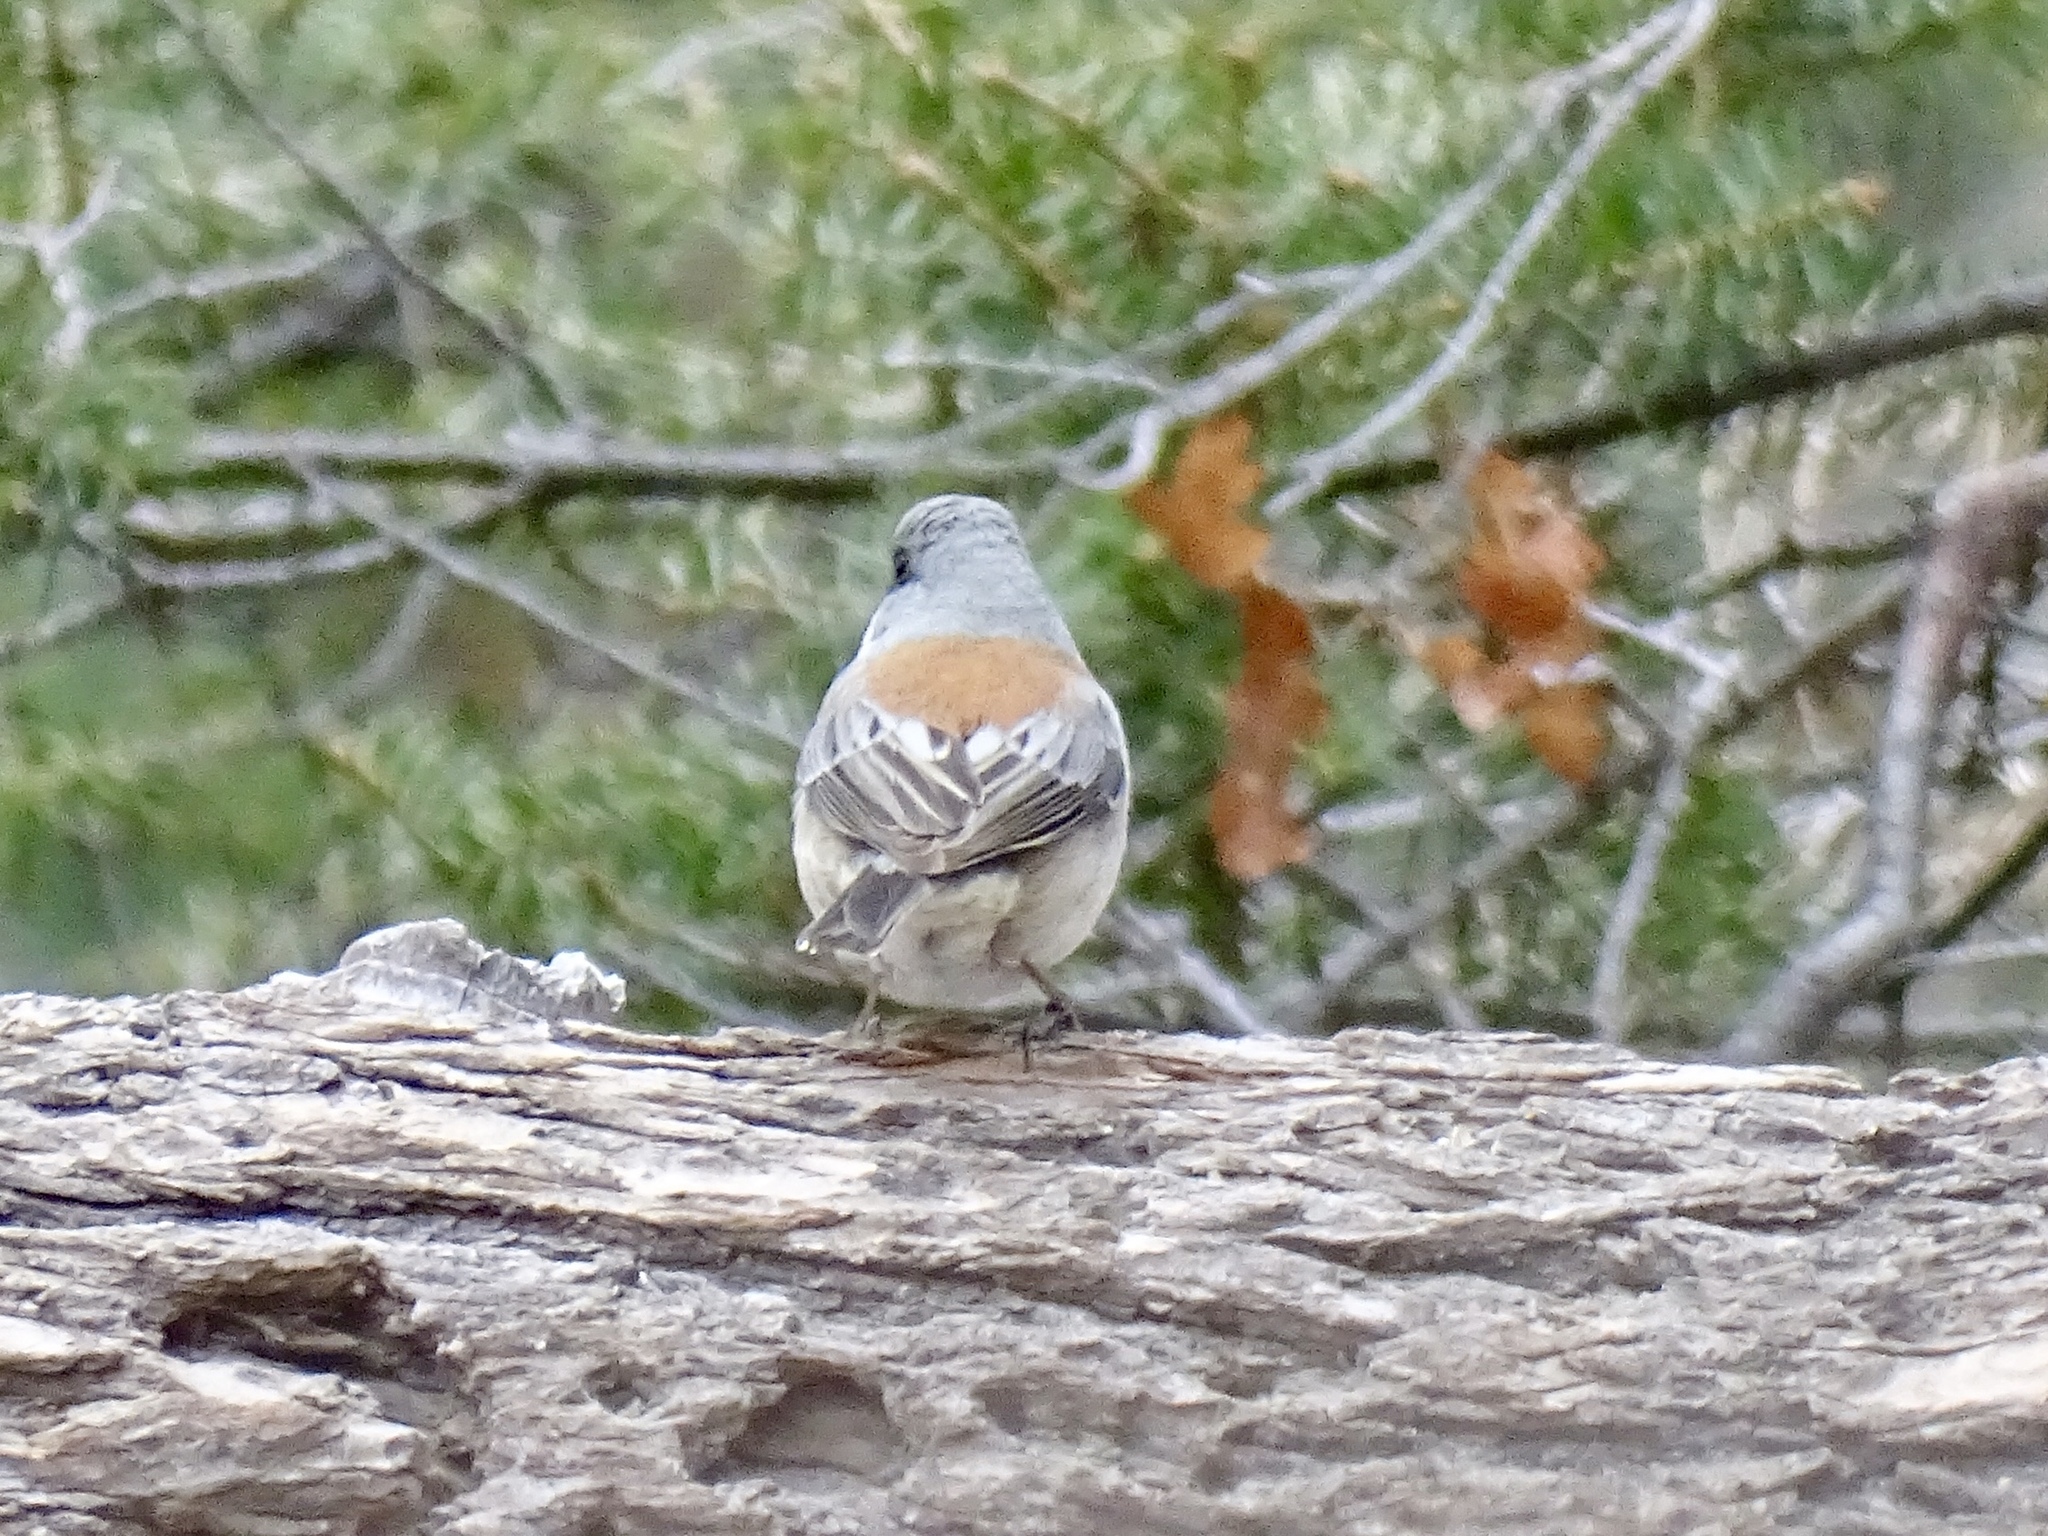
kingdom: Animalia
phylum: Chordata
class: Aves
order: Passeriformes
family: Passerellidae
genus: Junco
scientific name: Junco hyemalis
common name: Dark-eyed junco
